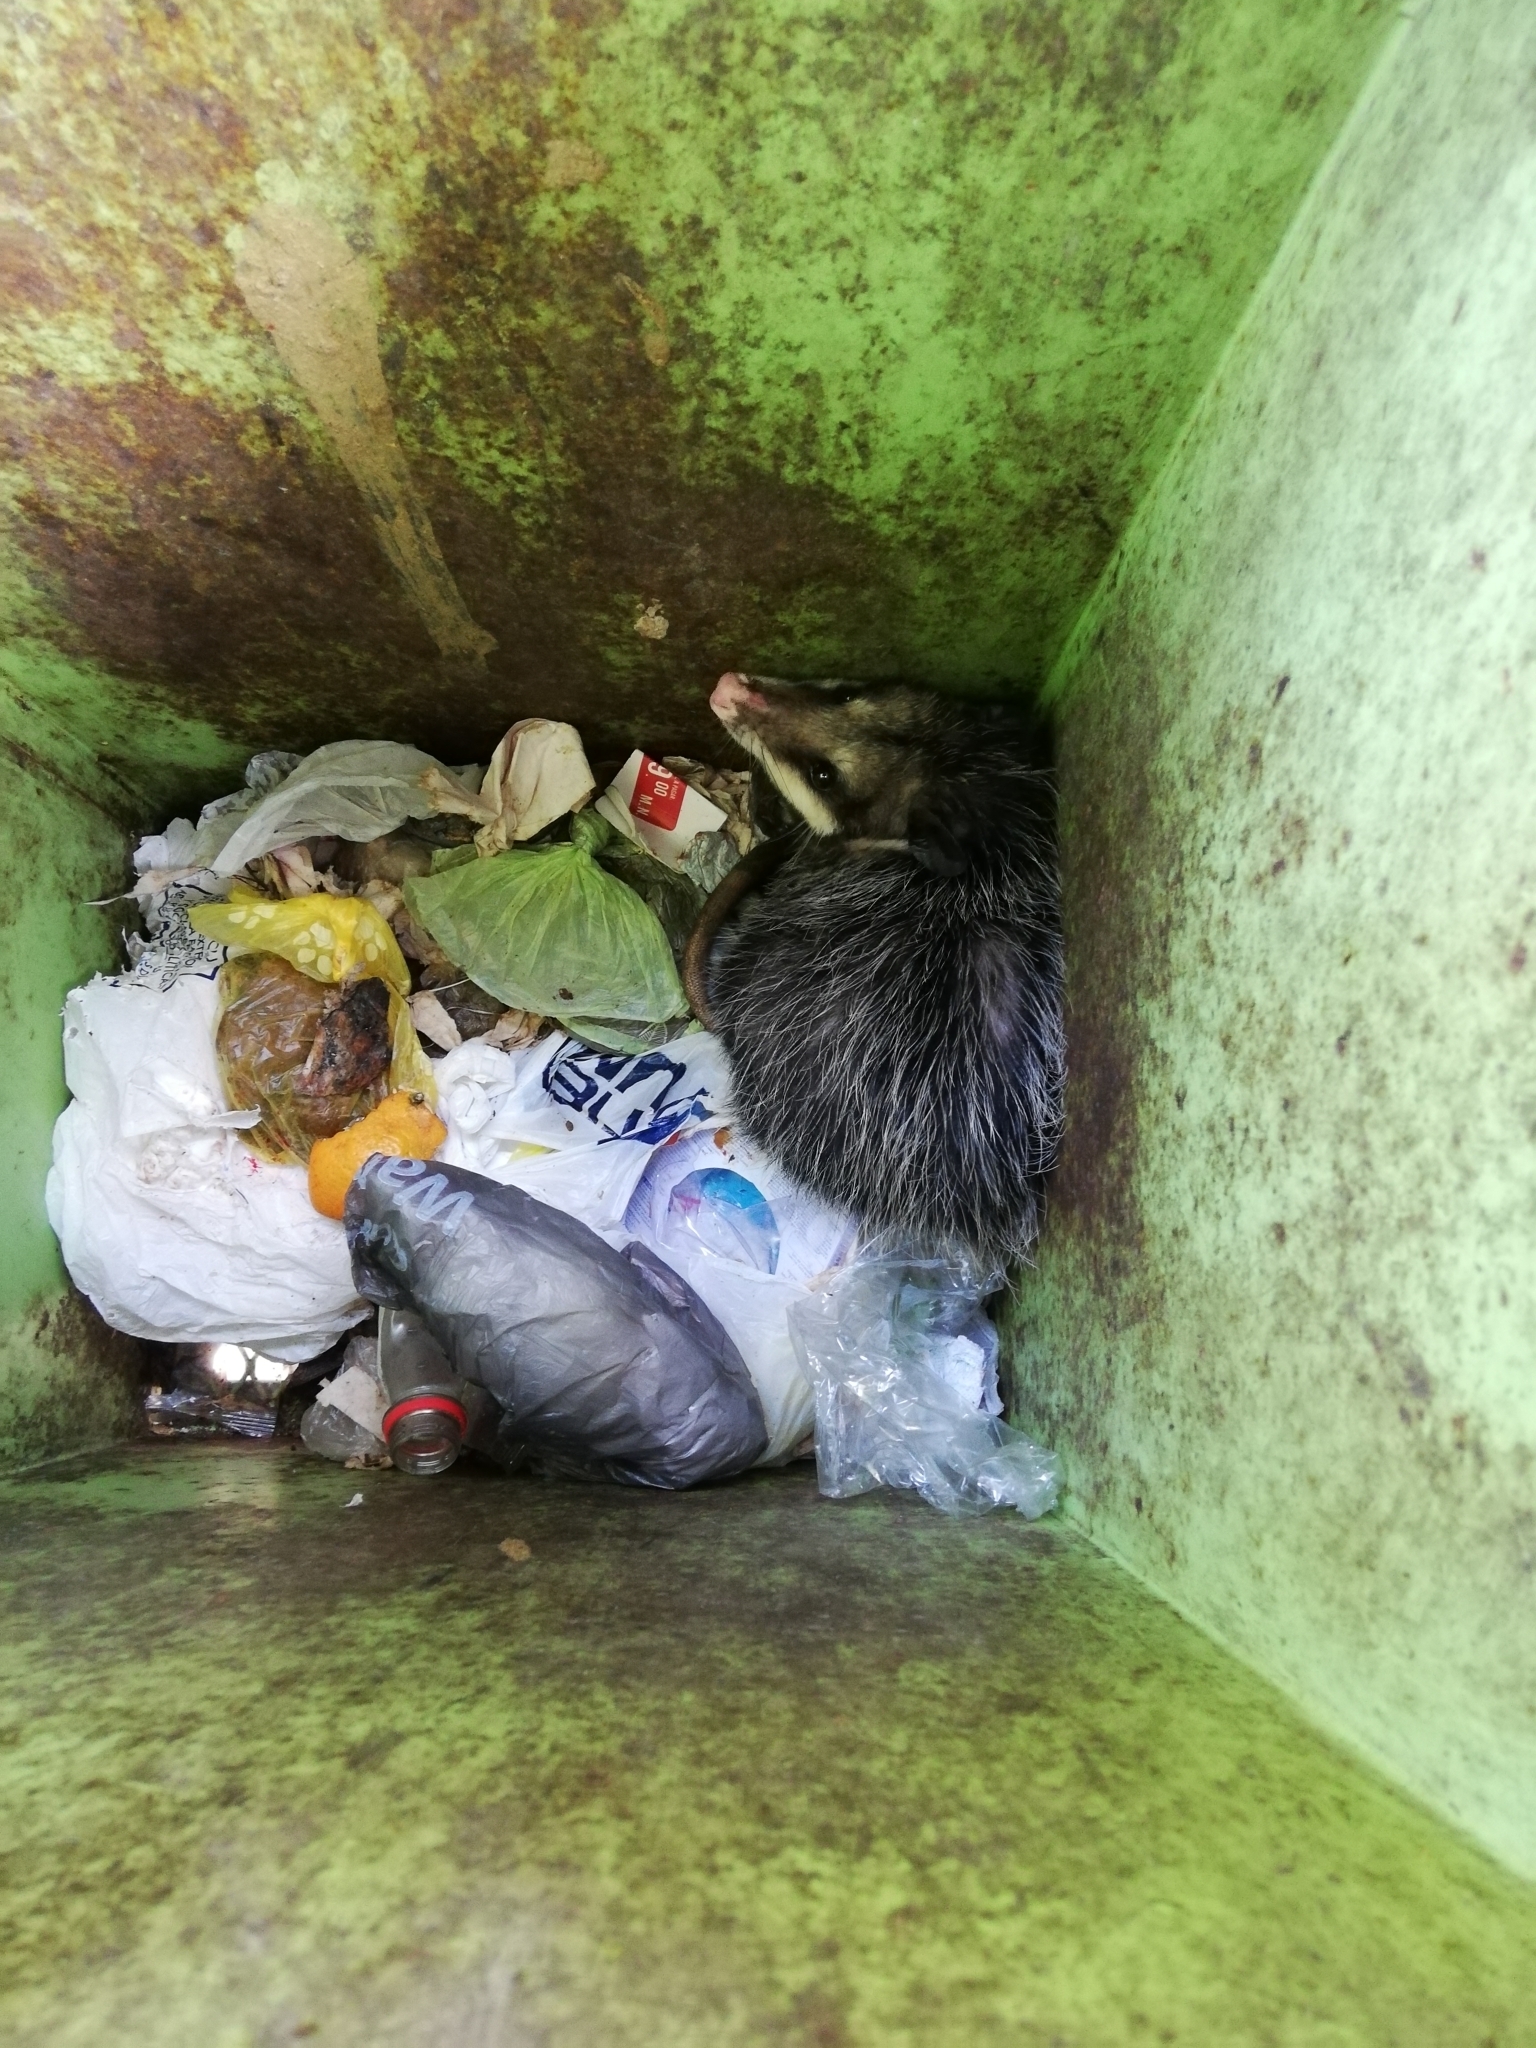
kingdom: Animalia
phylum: Chordata
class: Mammalia
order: Didelphimorphia
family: Didelphidae
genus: Didelphis
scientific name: Didelphis virginiana
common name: Virginia opossum
